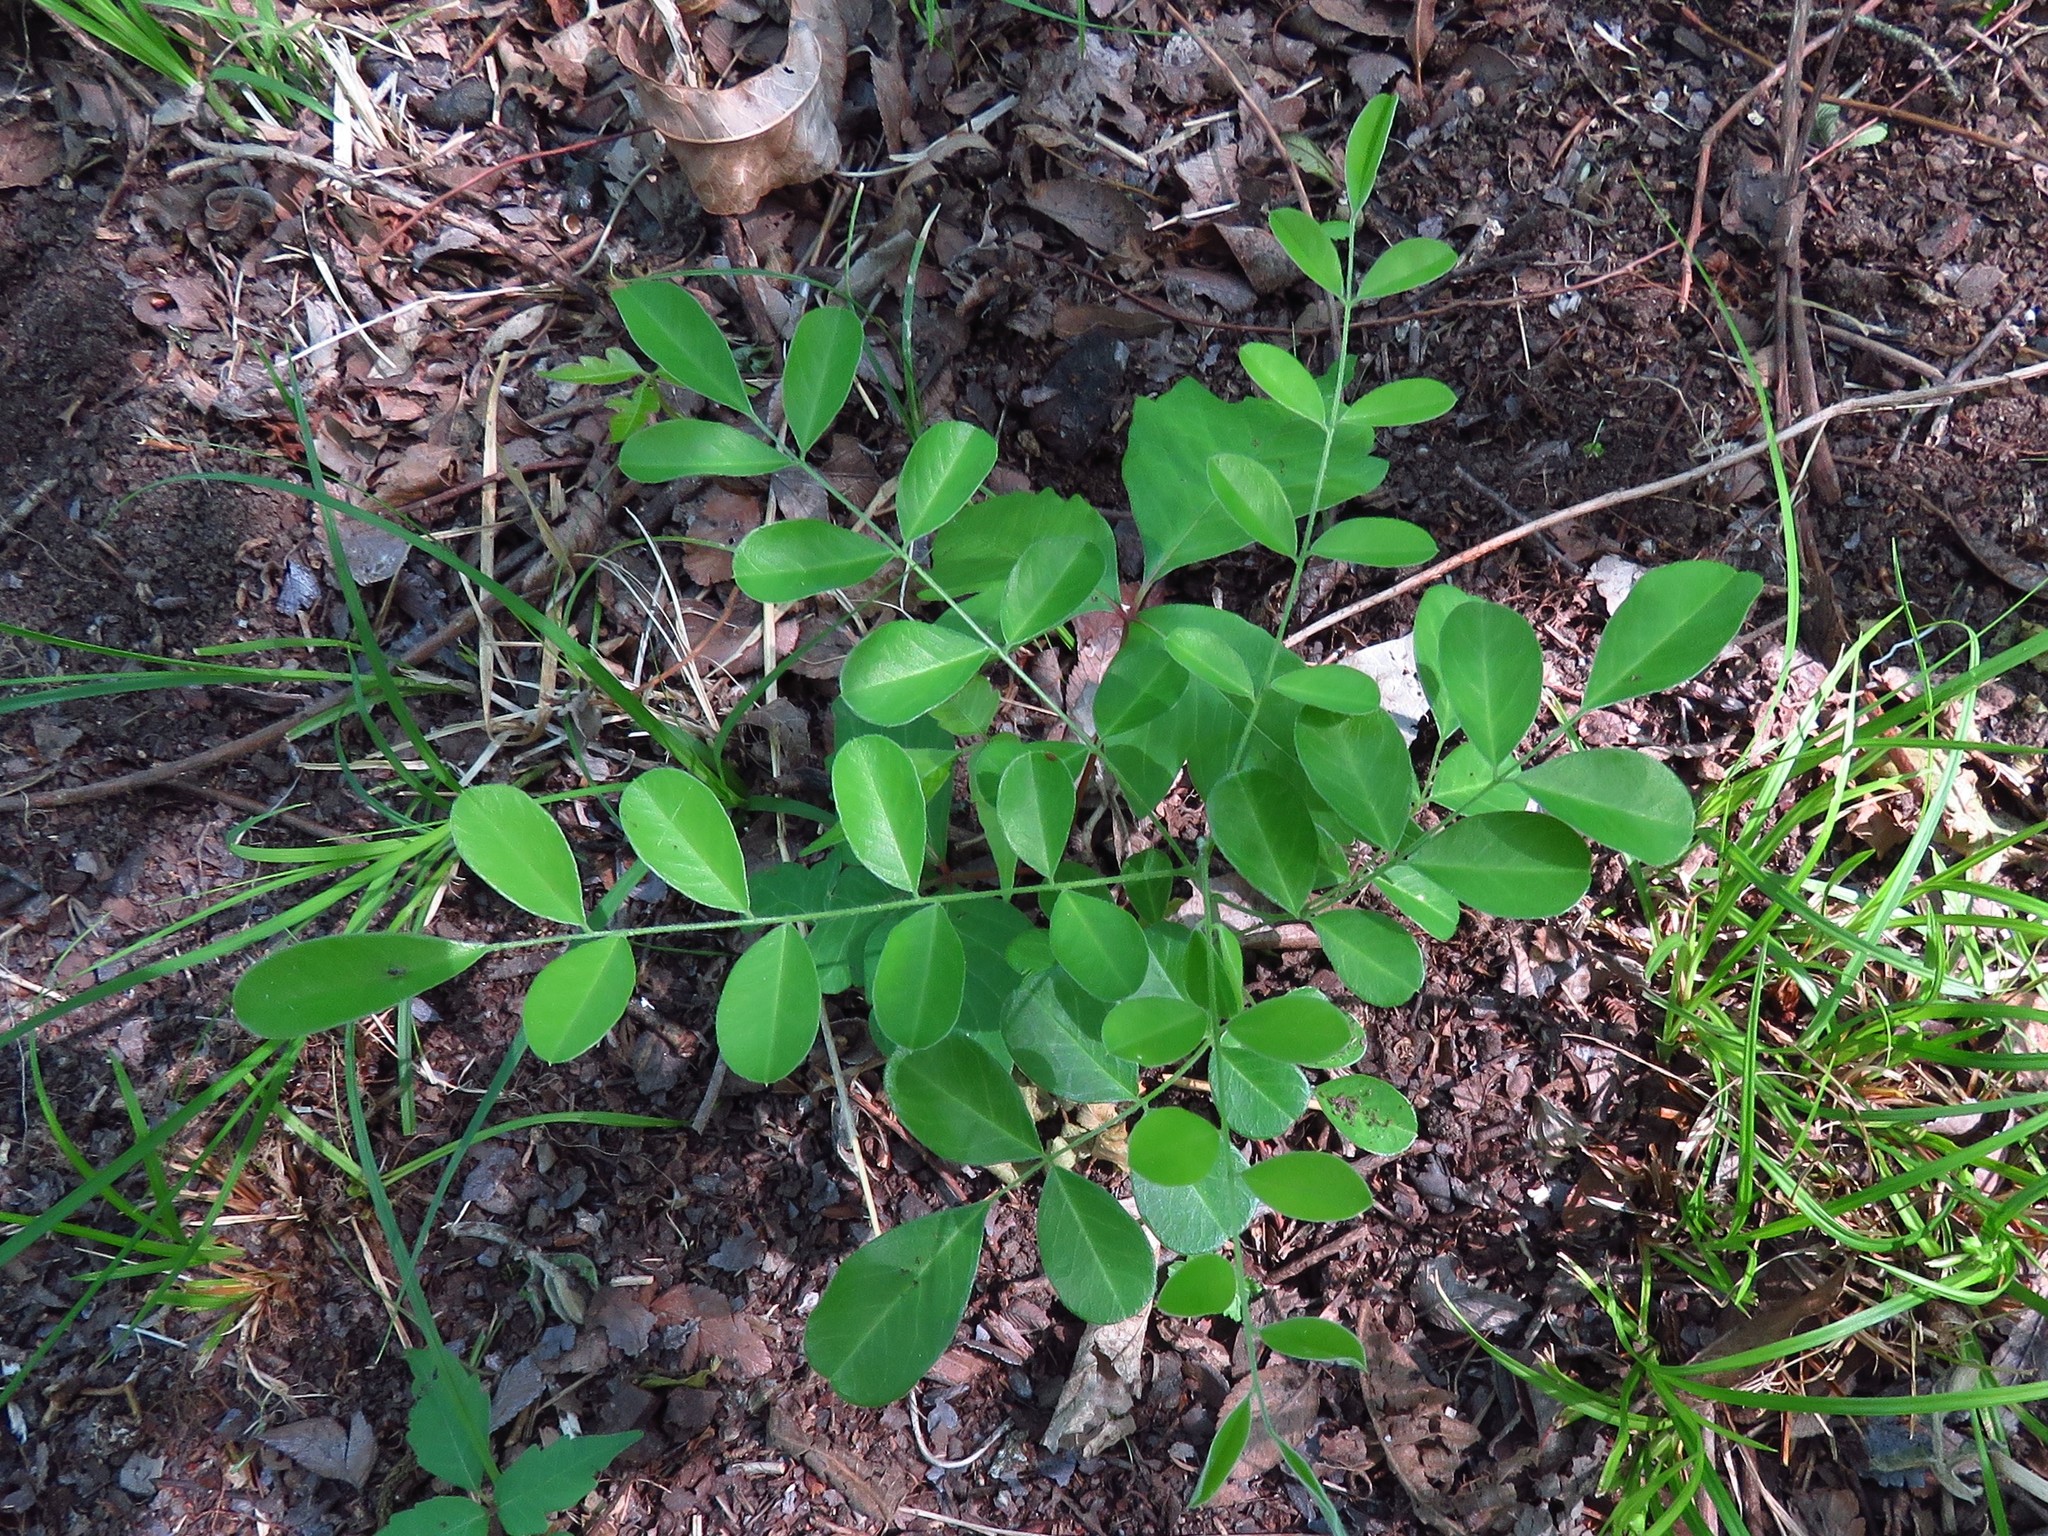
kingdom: Plantae
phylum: Tracheophyta
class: Magnoliopsida
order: Fabales
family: Fabaceae
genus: Styphnolobium
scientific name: Styphnolobium affine
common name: Texas sophora
